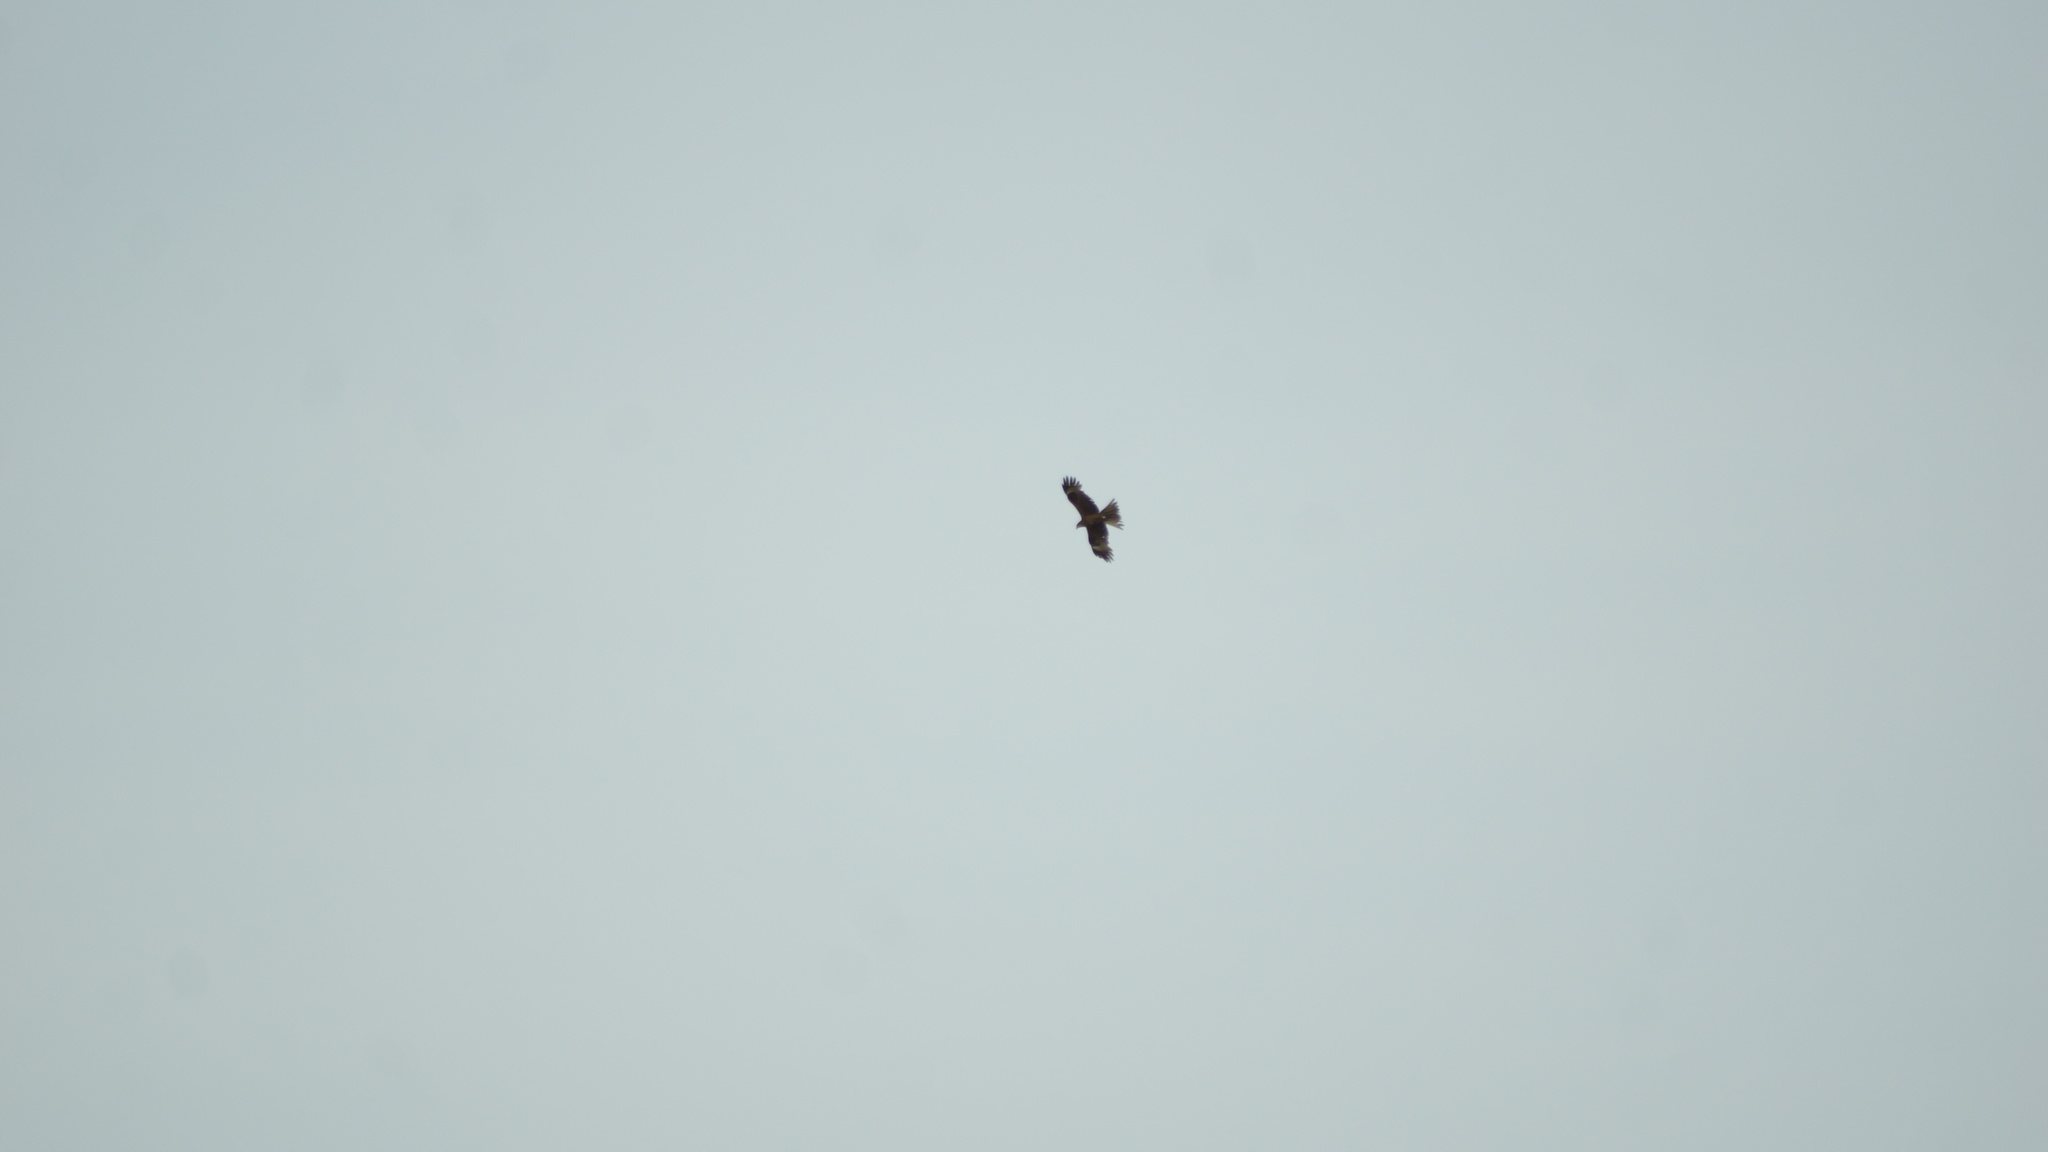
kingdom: Animalia
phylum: Chordata
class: Aves
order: Accipitriformes
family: Accipitridae
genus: Milvus
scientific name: Milvus migrans
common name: Black kite
